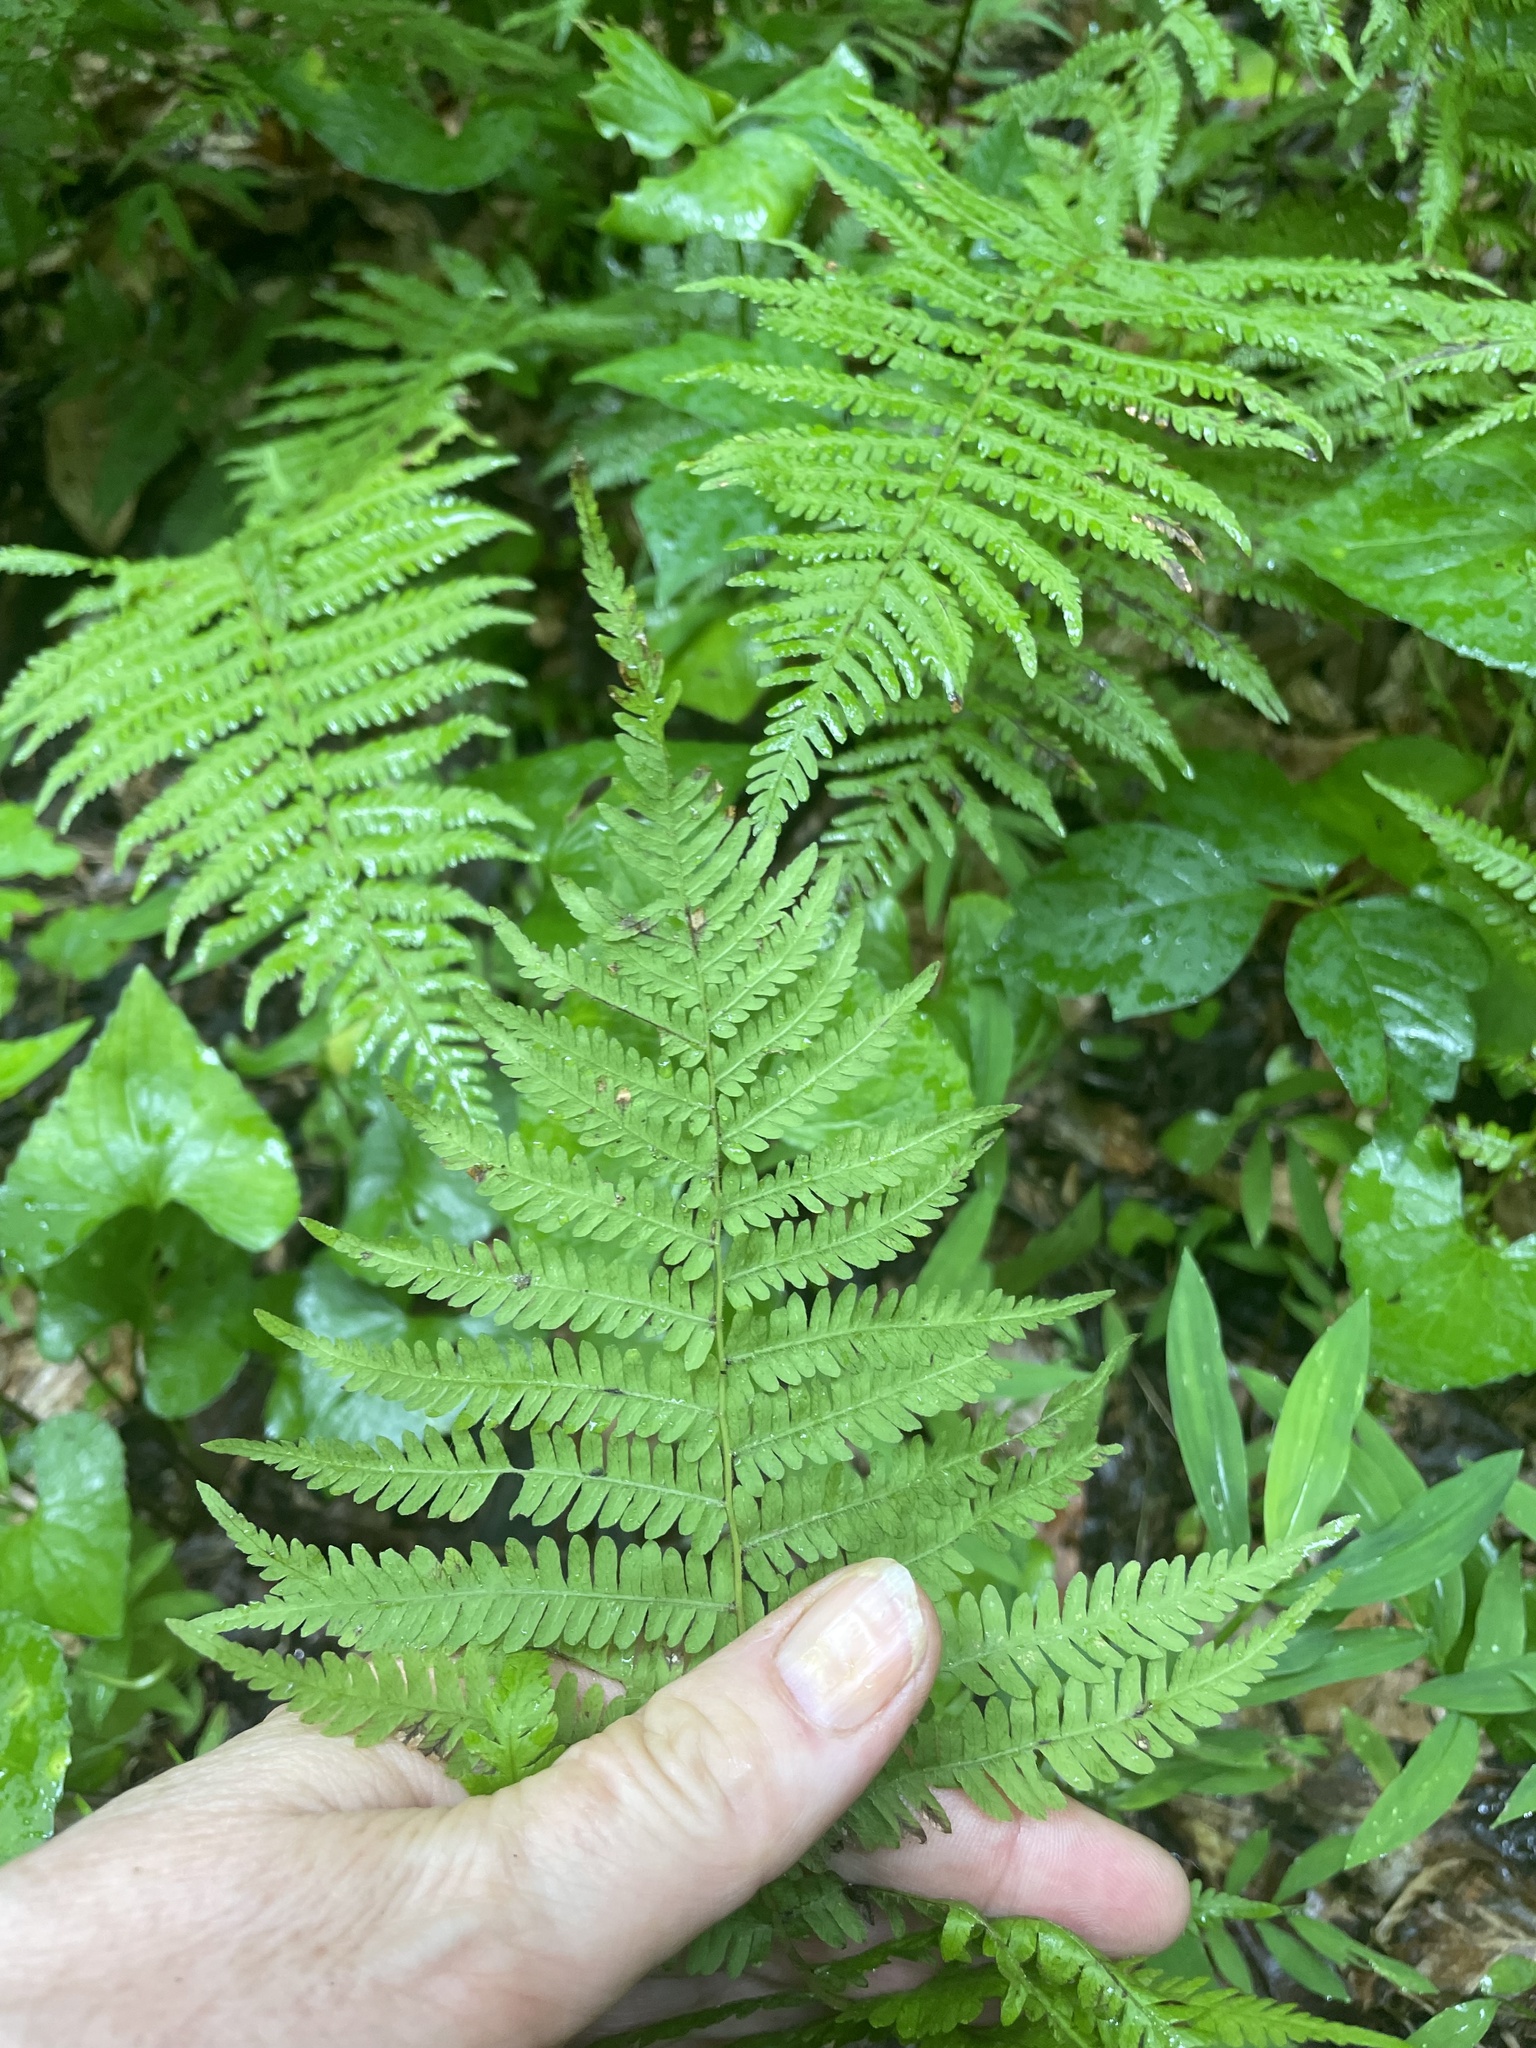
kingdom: Plantae
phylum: Tracheophyta
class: Polypodiopsida
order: Polypodiales
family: Thelypteridaceae
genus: Amauropelta
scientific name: Amauropelta noveboracensis
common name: New york fern
